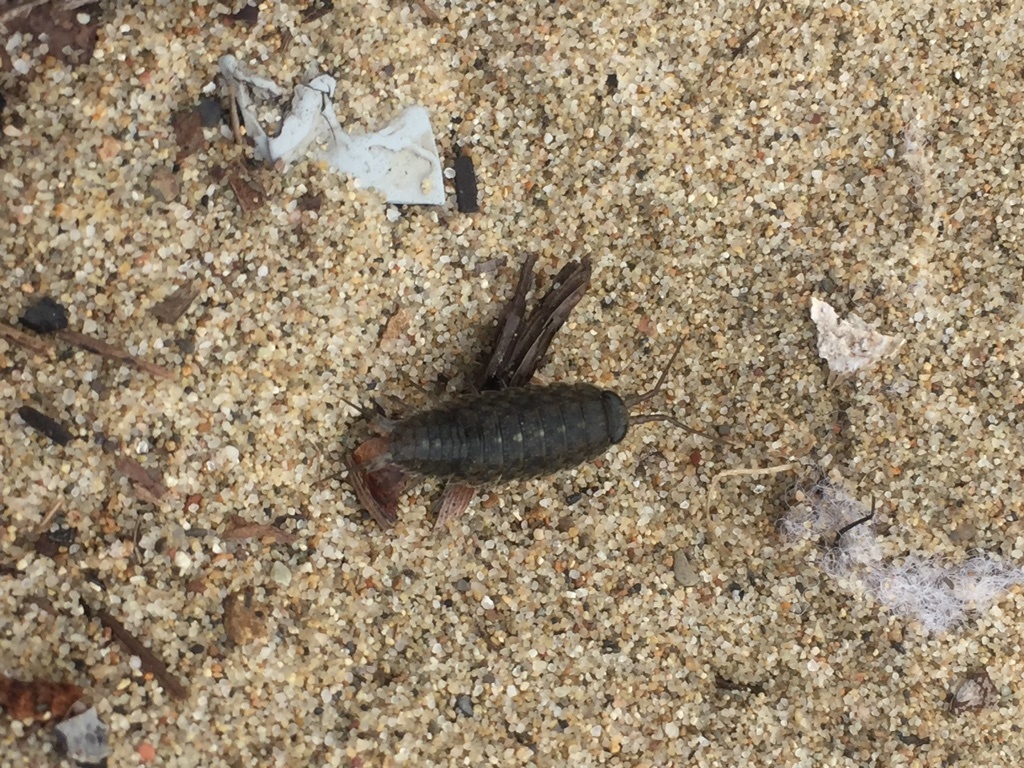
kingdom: Animalia
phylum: Arthropoda
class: Malacostraca
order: Isopoda
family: Ligiidae
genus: Ligia
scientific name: Ligia occidentalis
